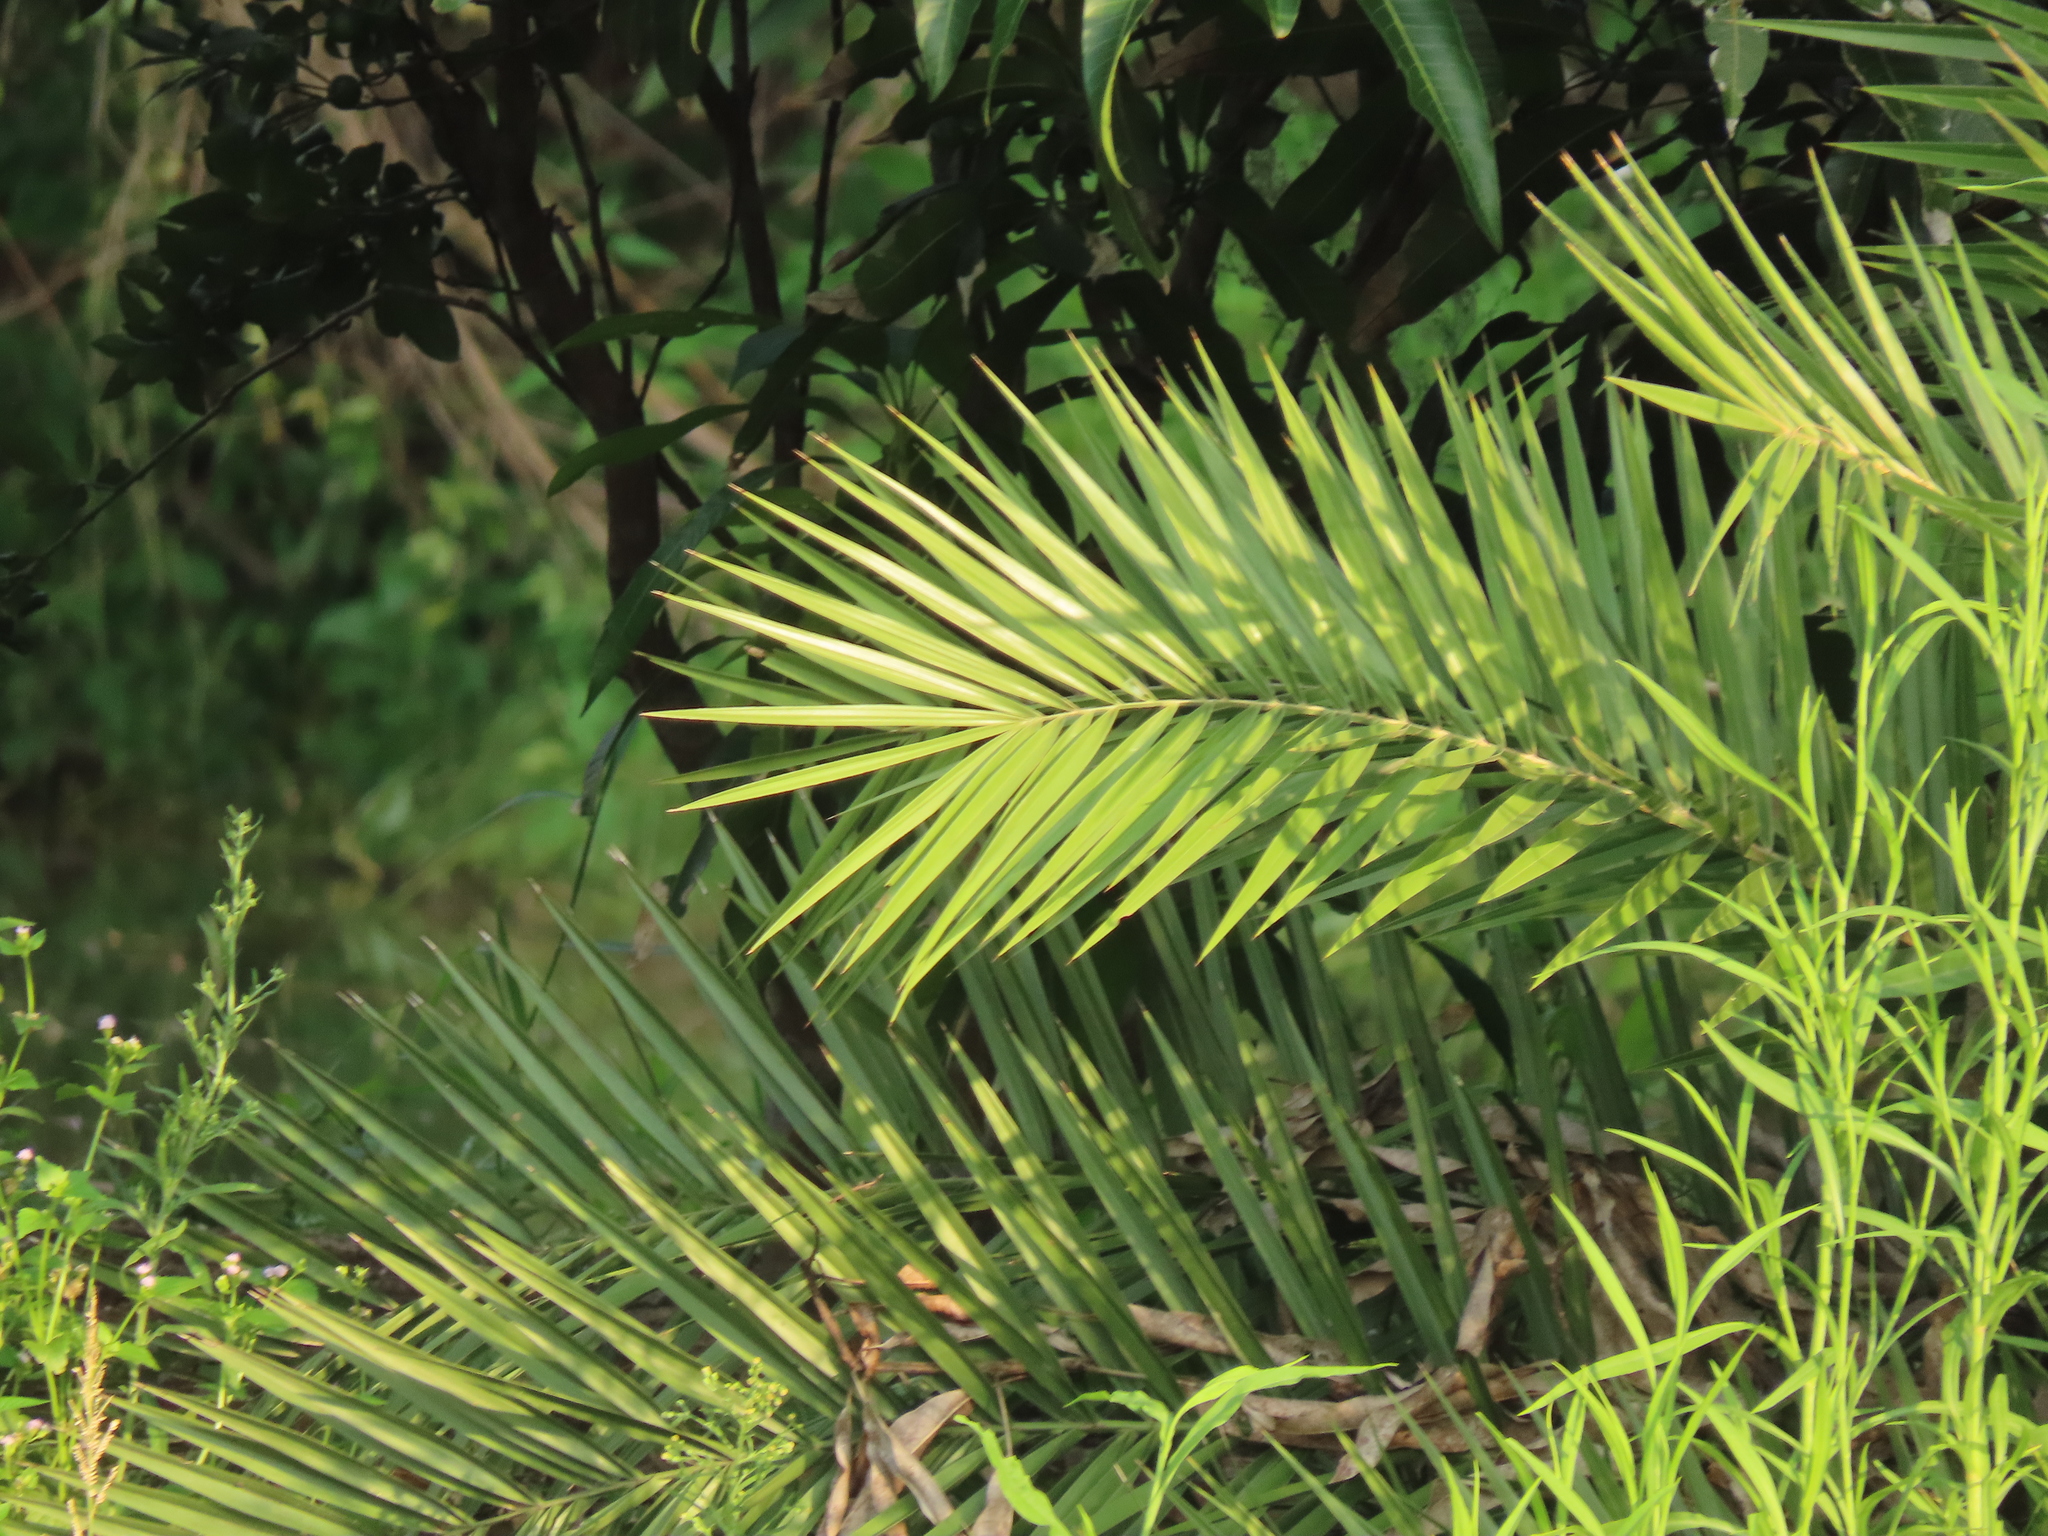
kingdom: Plantae
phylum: Tracheophyta
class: Liliopsida
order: Arecales
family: Arecaceae
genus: Phoenix
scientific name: Phoenix loureiroi
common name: Loureiro's palm
